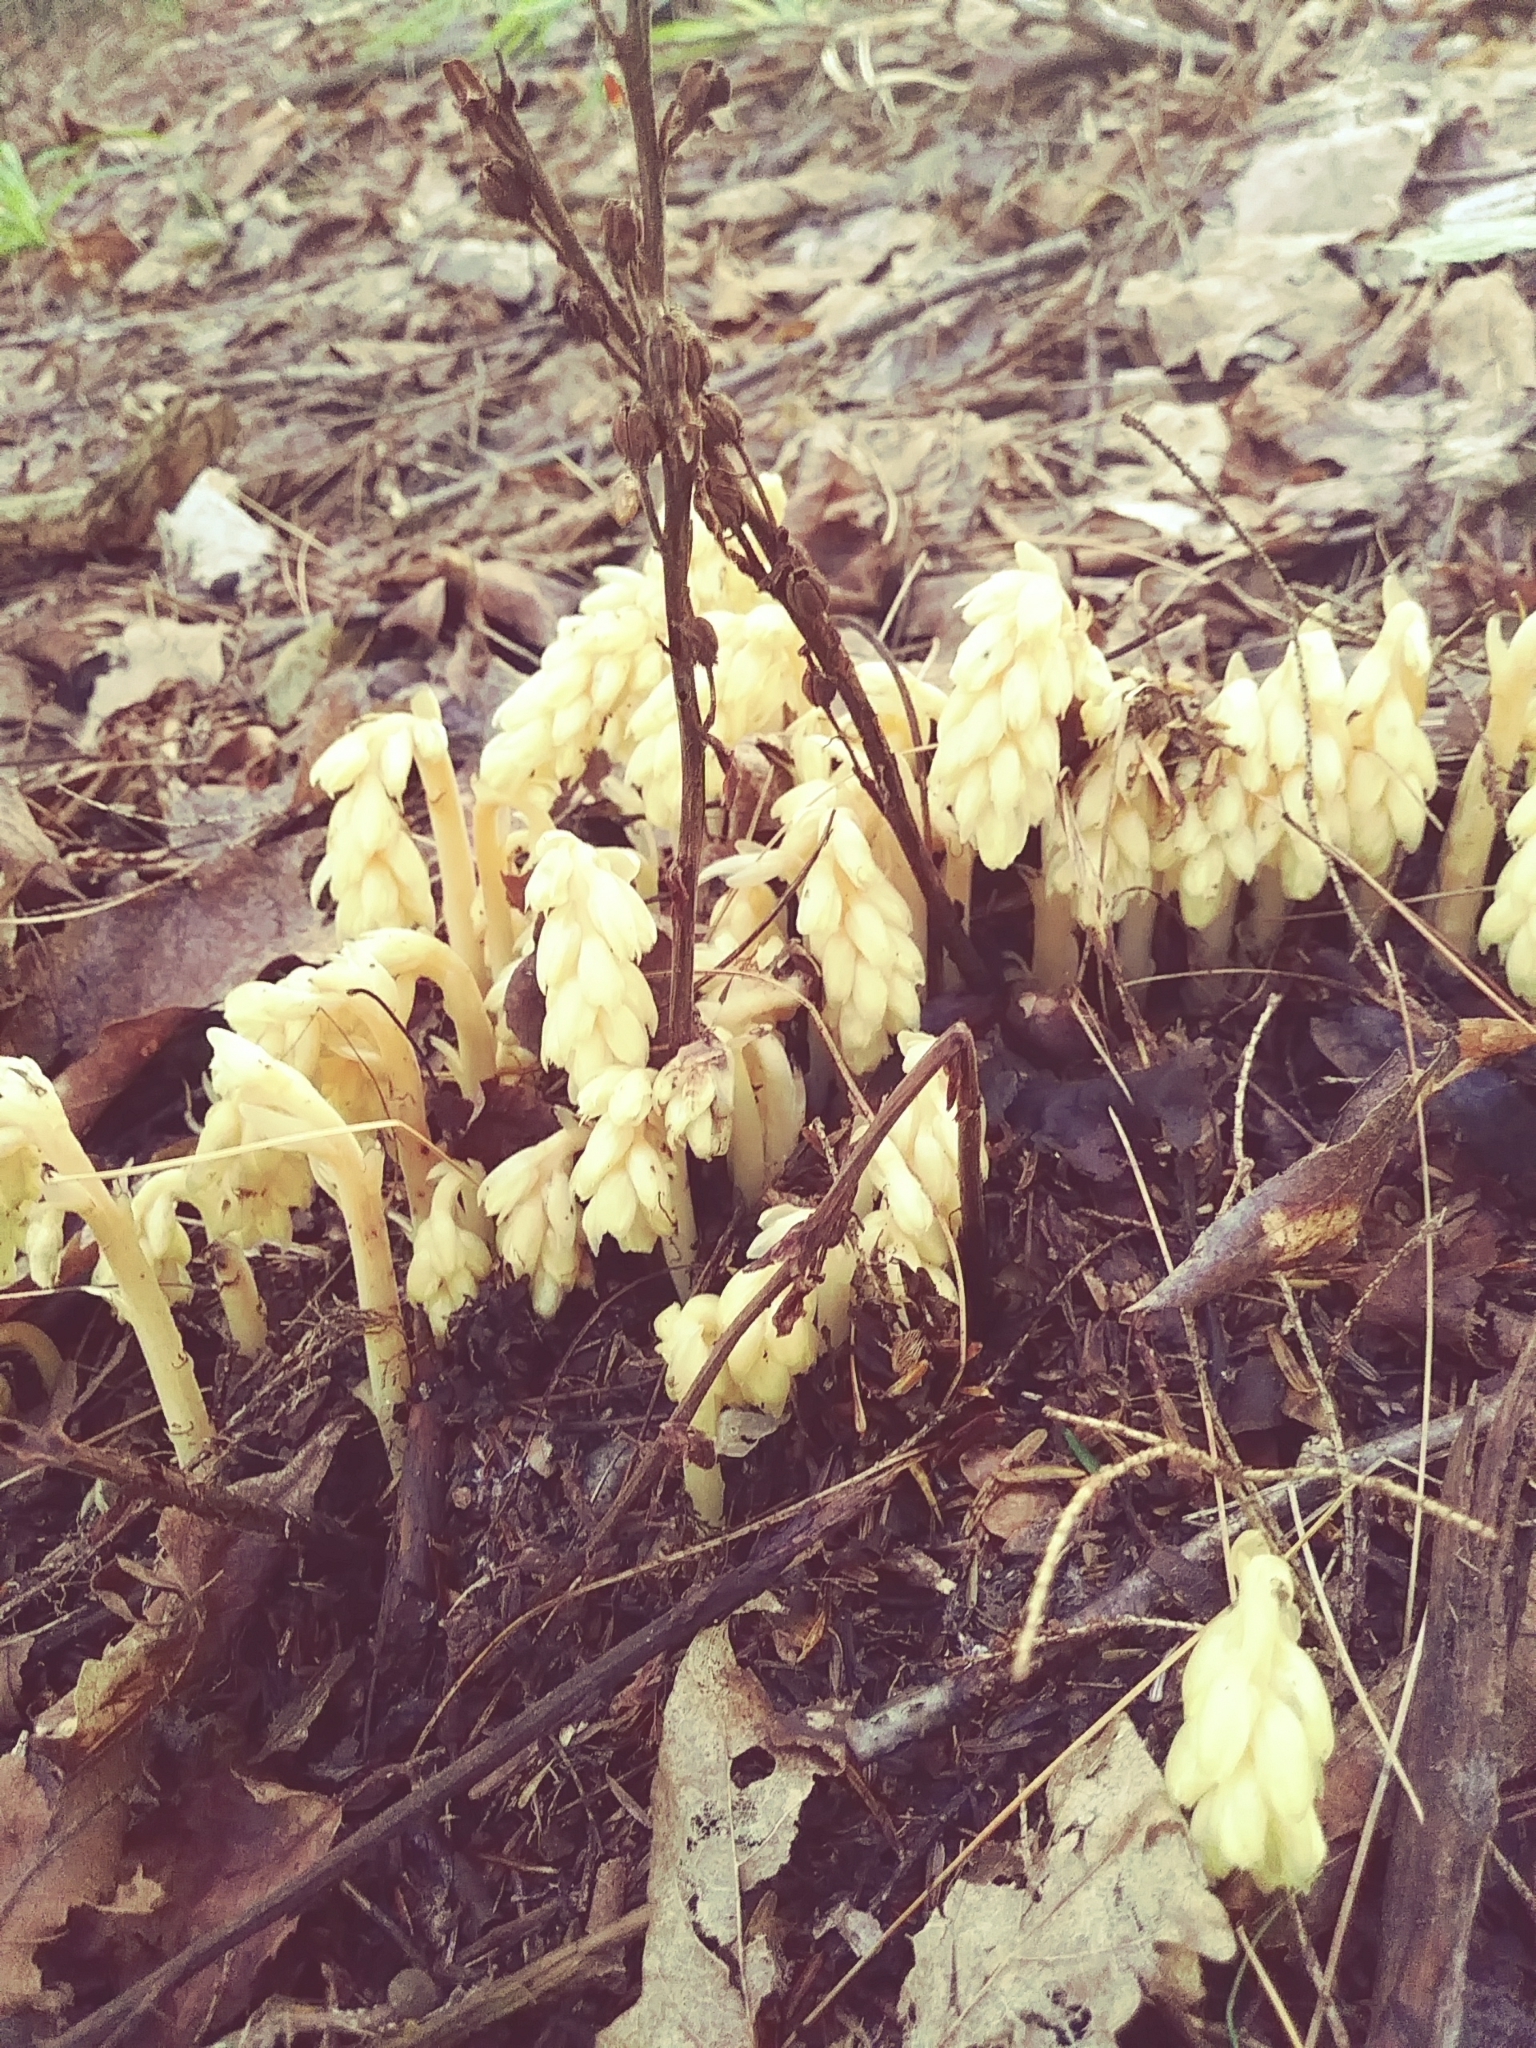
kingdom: Plantae
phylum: Tracheophyta
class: Magnoliopsida
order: Ericales
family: Ericaceae
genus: Hypopitys
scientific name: Hypopitys monotropa
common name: Yellow bird's-nest
